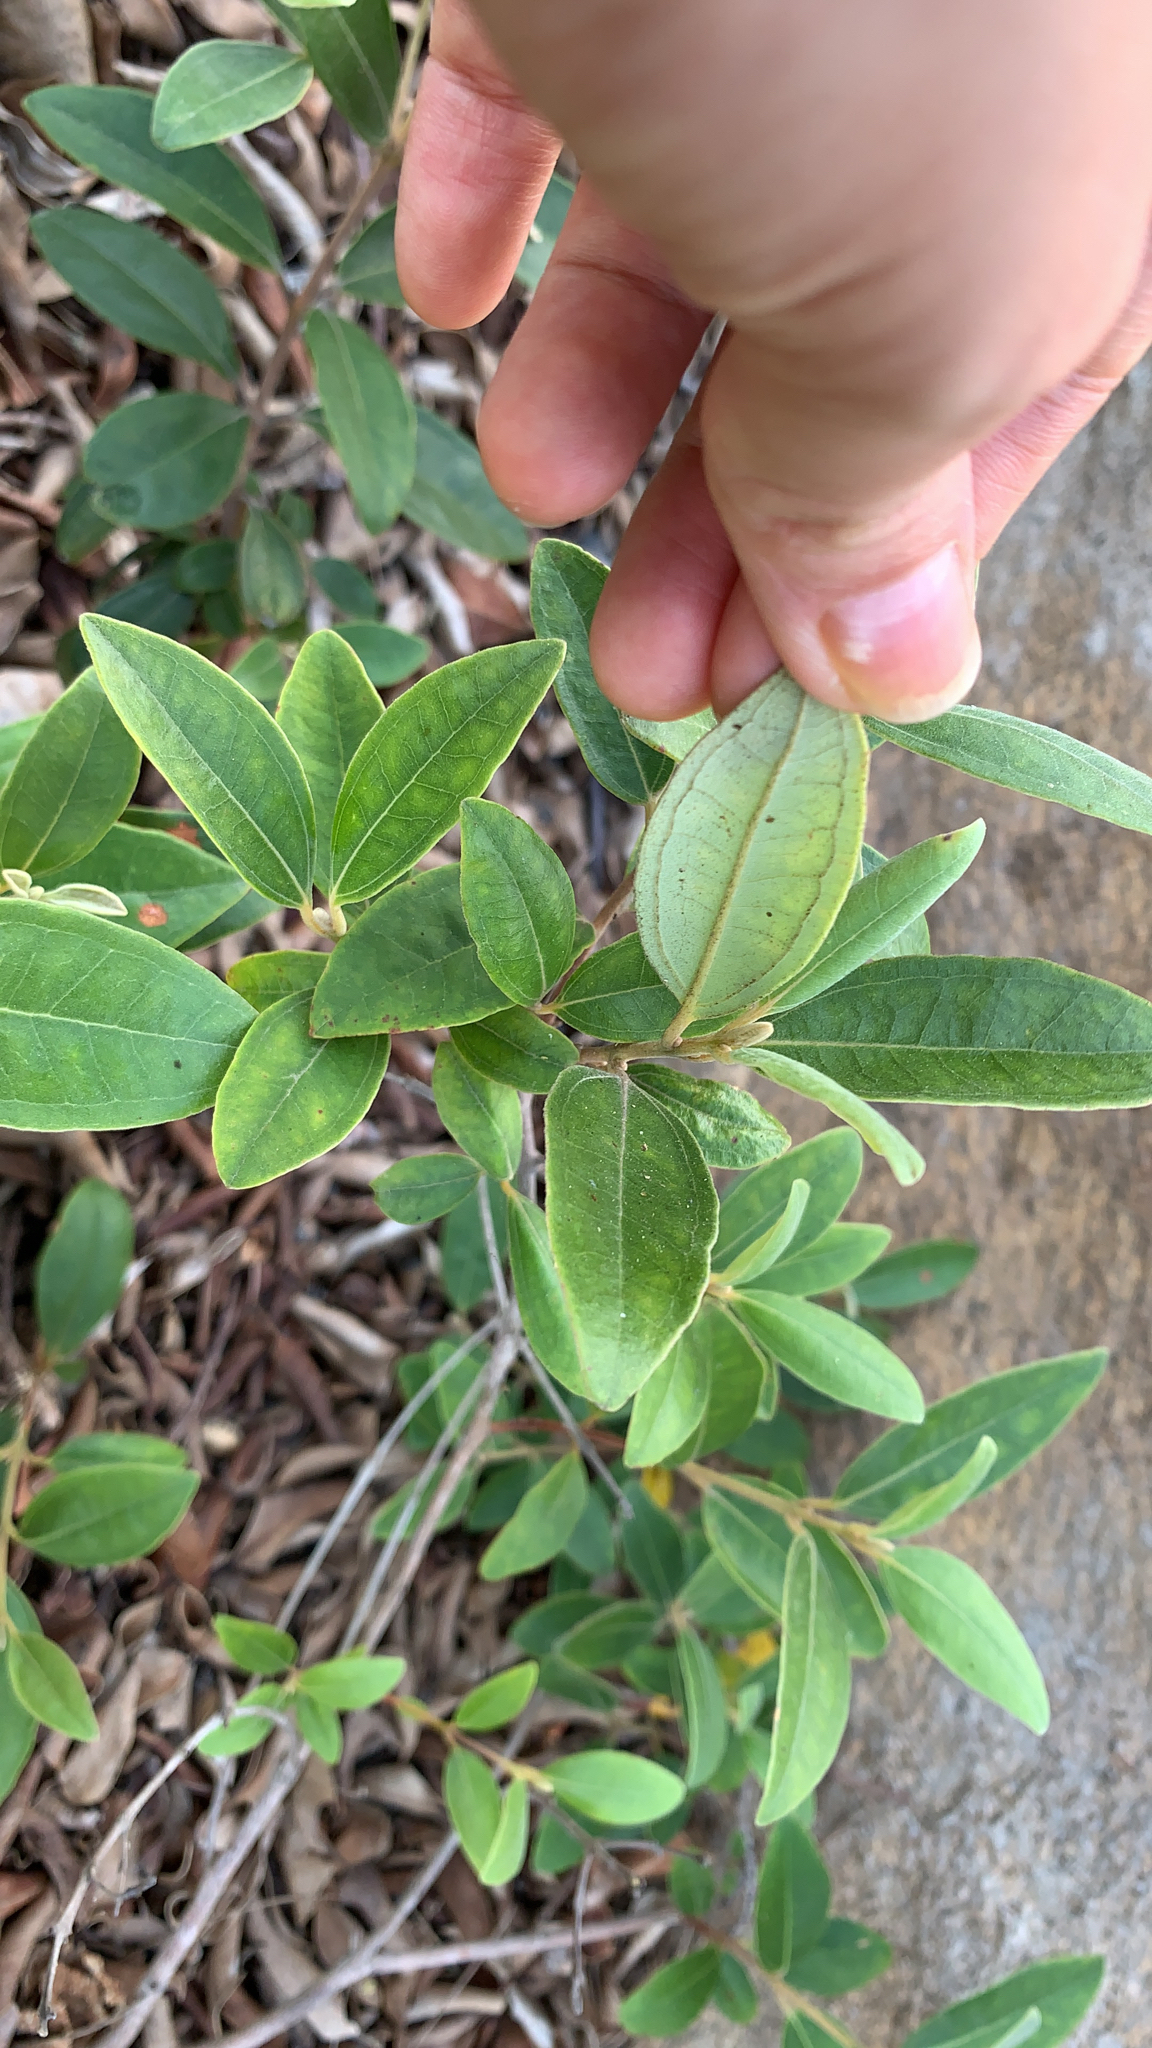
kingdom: Plantae
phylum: Tracheophyta
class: Magnoliopsida
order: Myrtales
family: Myrtaceae
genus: Rhodomyrtus
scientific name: Rhodomyrtus tomentosa
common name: Rose myrtle
